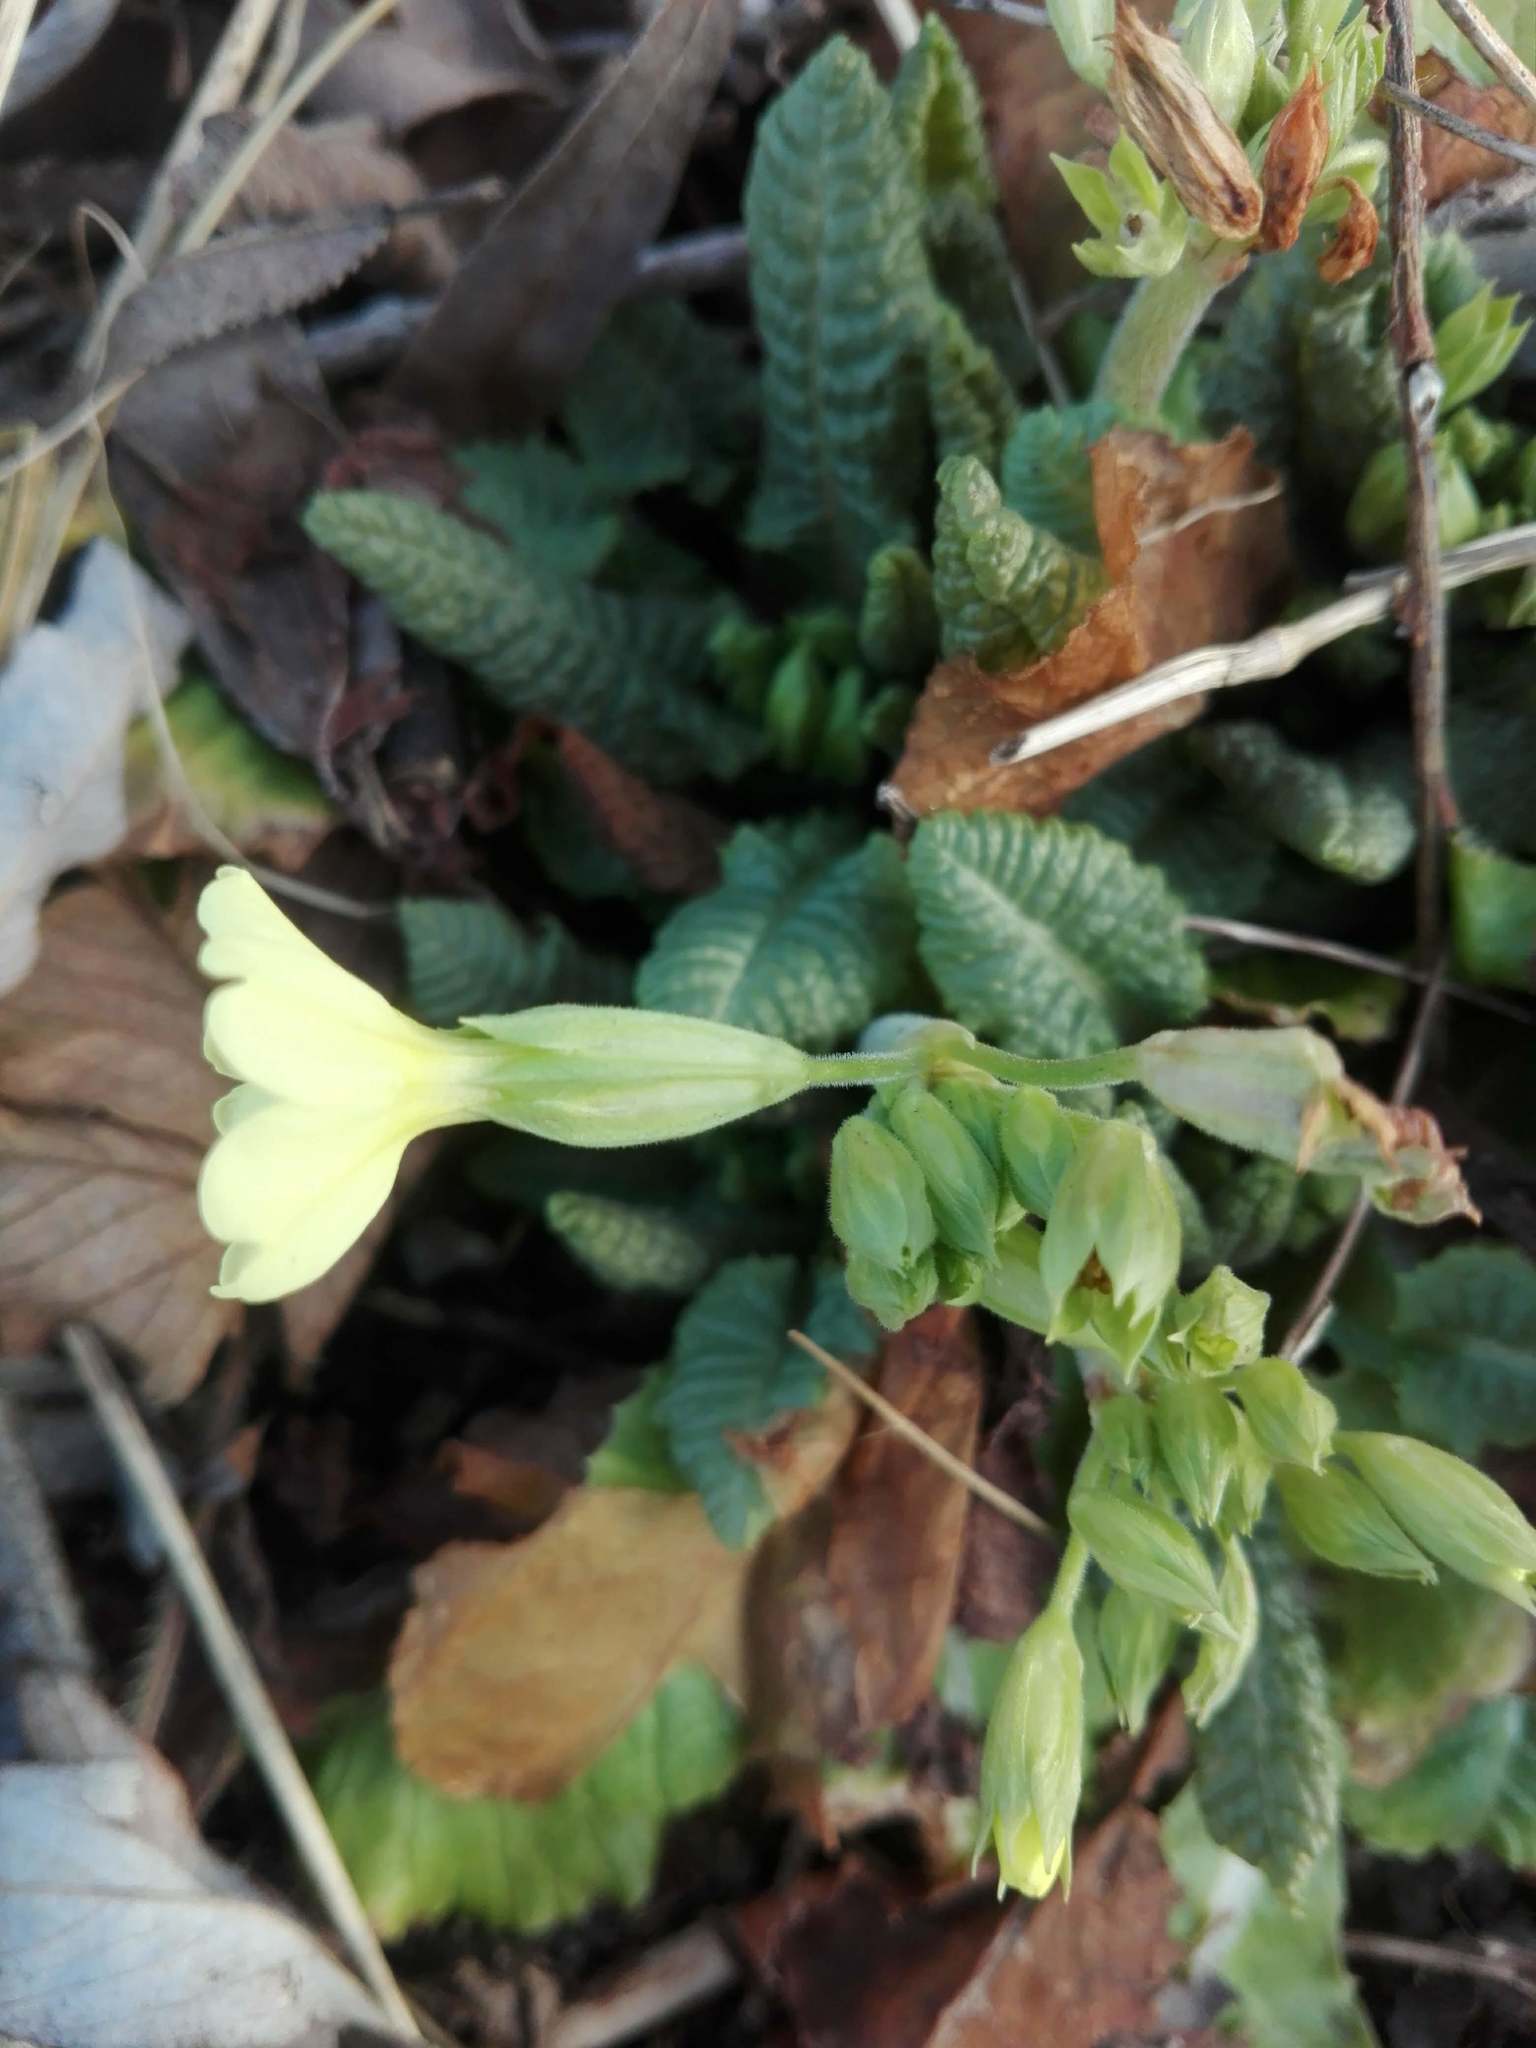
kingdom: Plantae
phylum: Tracheophyta
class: Magnoliopsida
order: Ericales
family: Primulaceae
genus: Primula
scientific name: Primula elatior
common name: Oxlip
